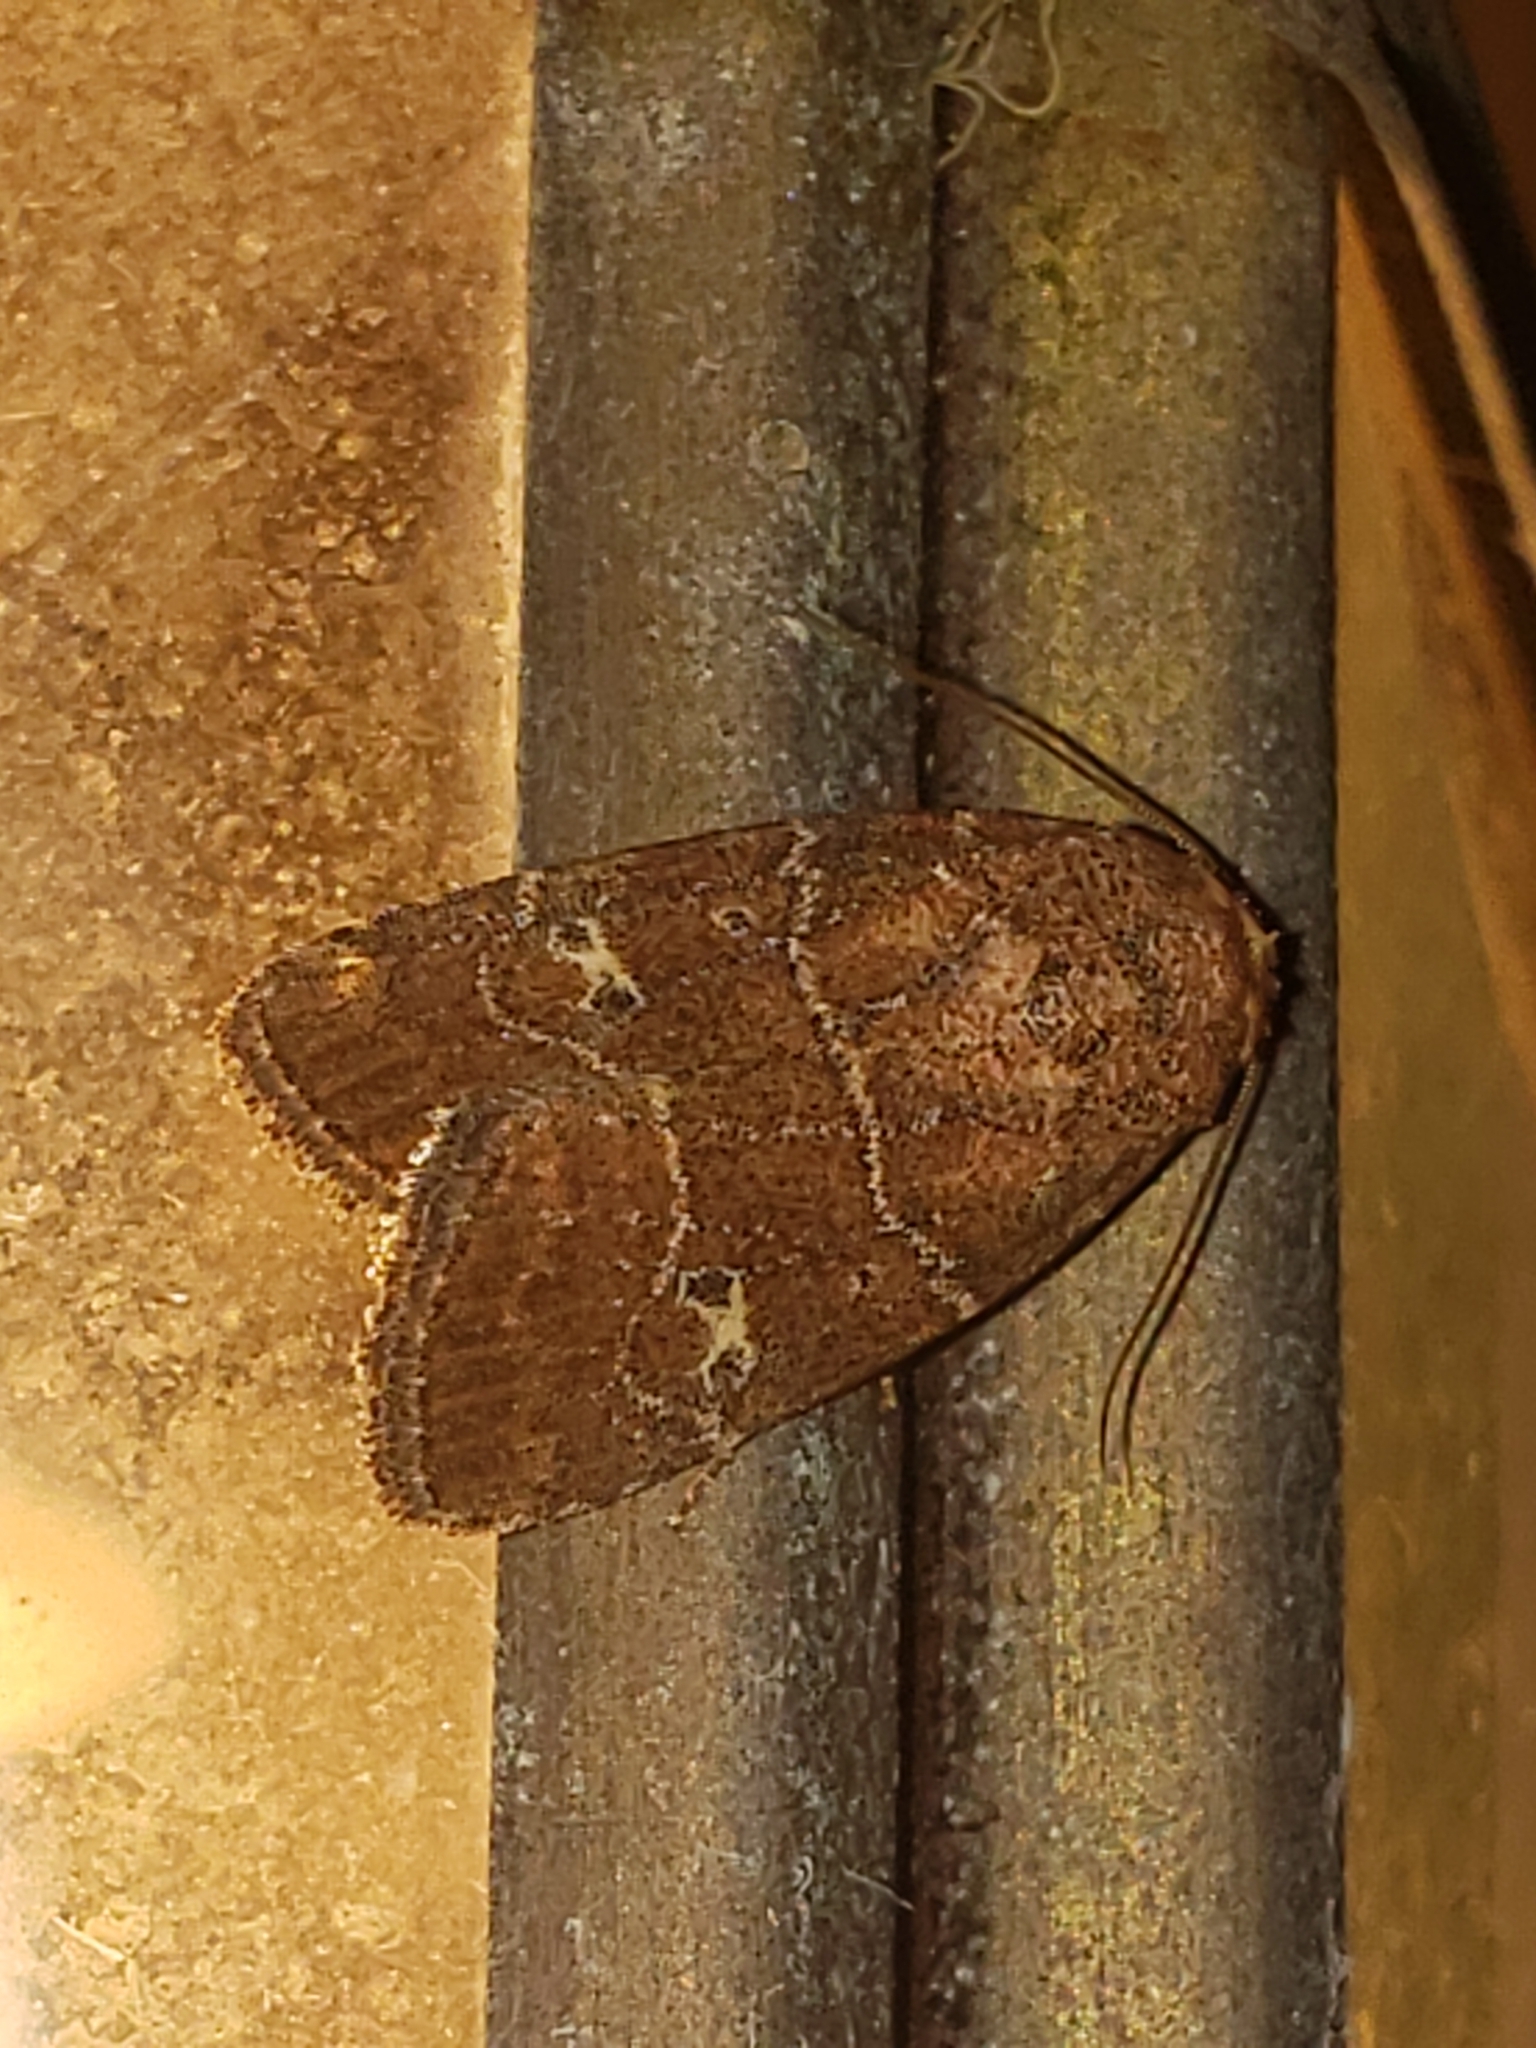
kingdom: Animalia
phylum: Arthropoda
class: Insecta
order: Lepidoptera
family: Noctuidae
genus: Elaphria
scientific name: Elaphria grata
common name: Grateful midget moth
